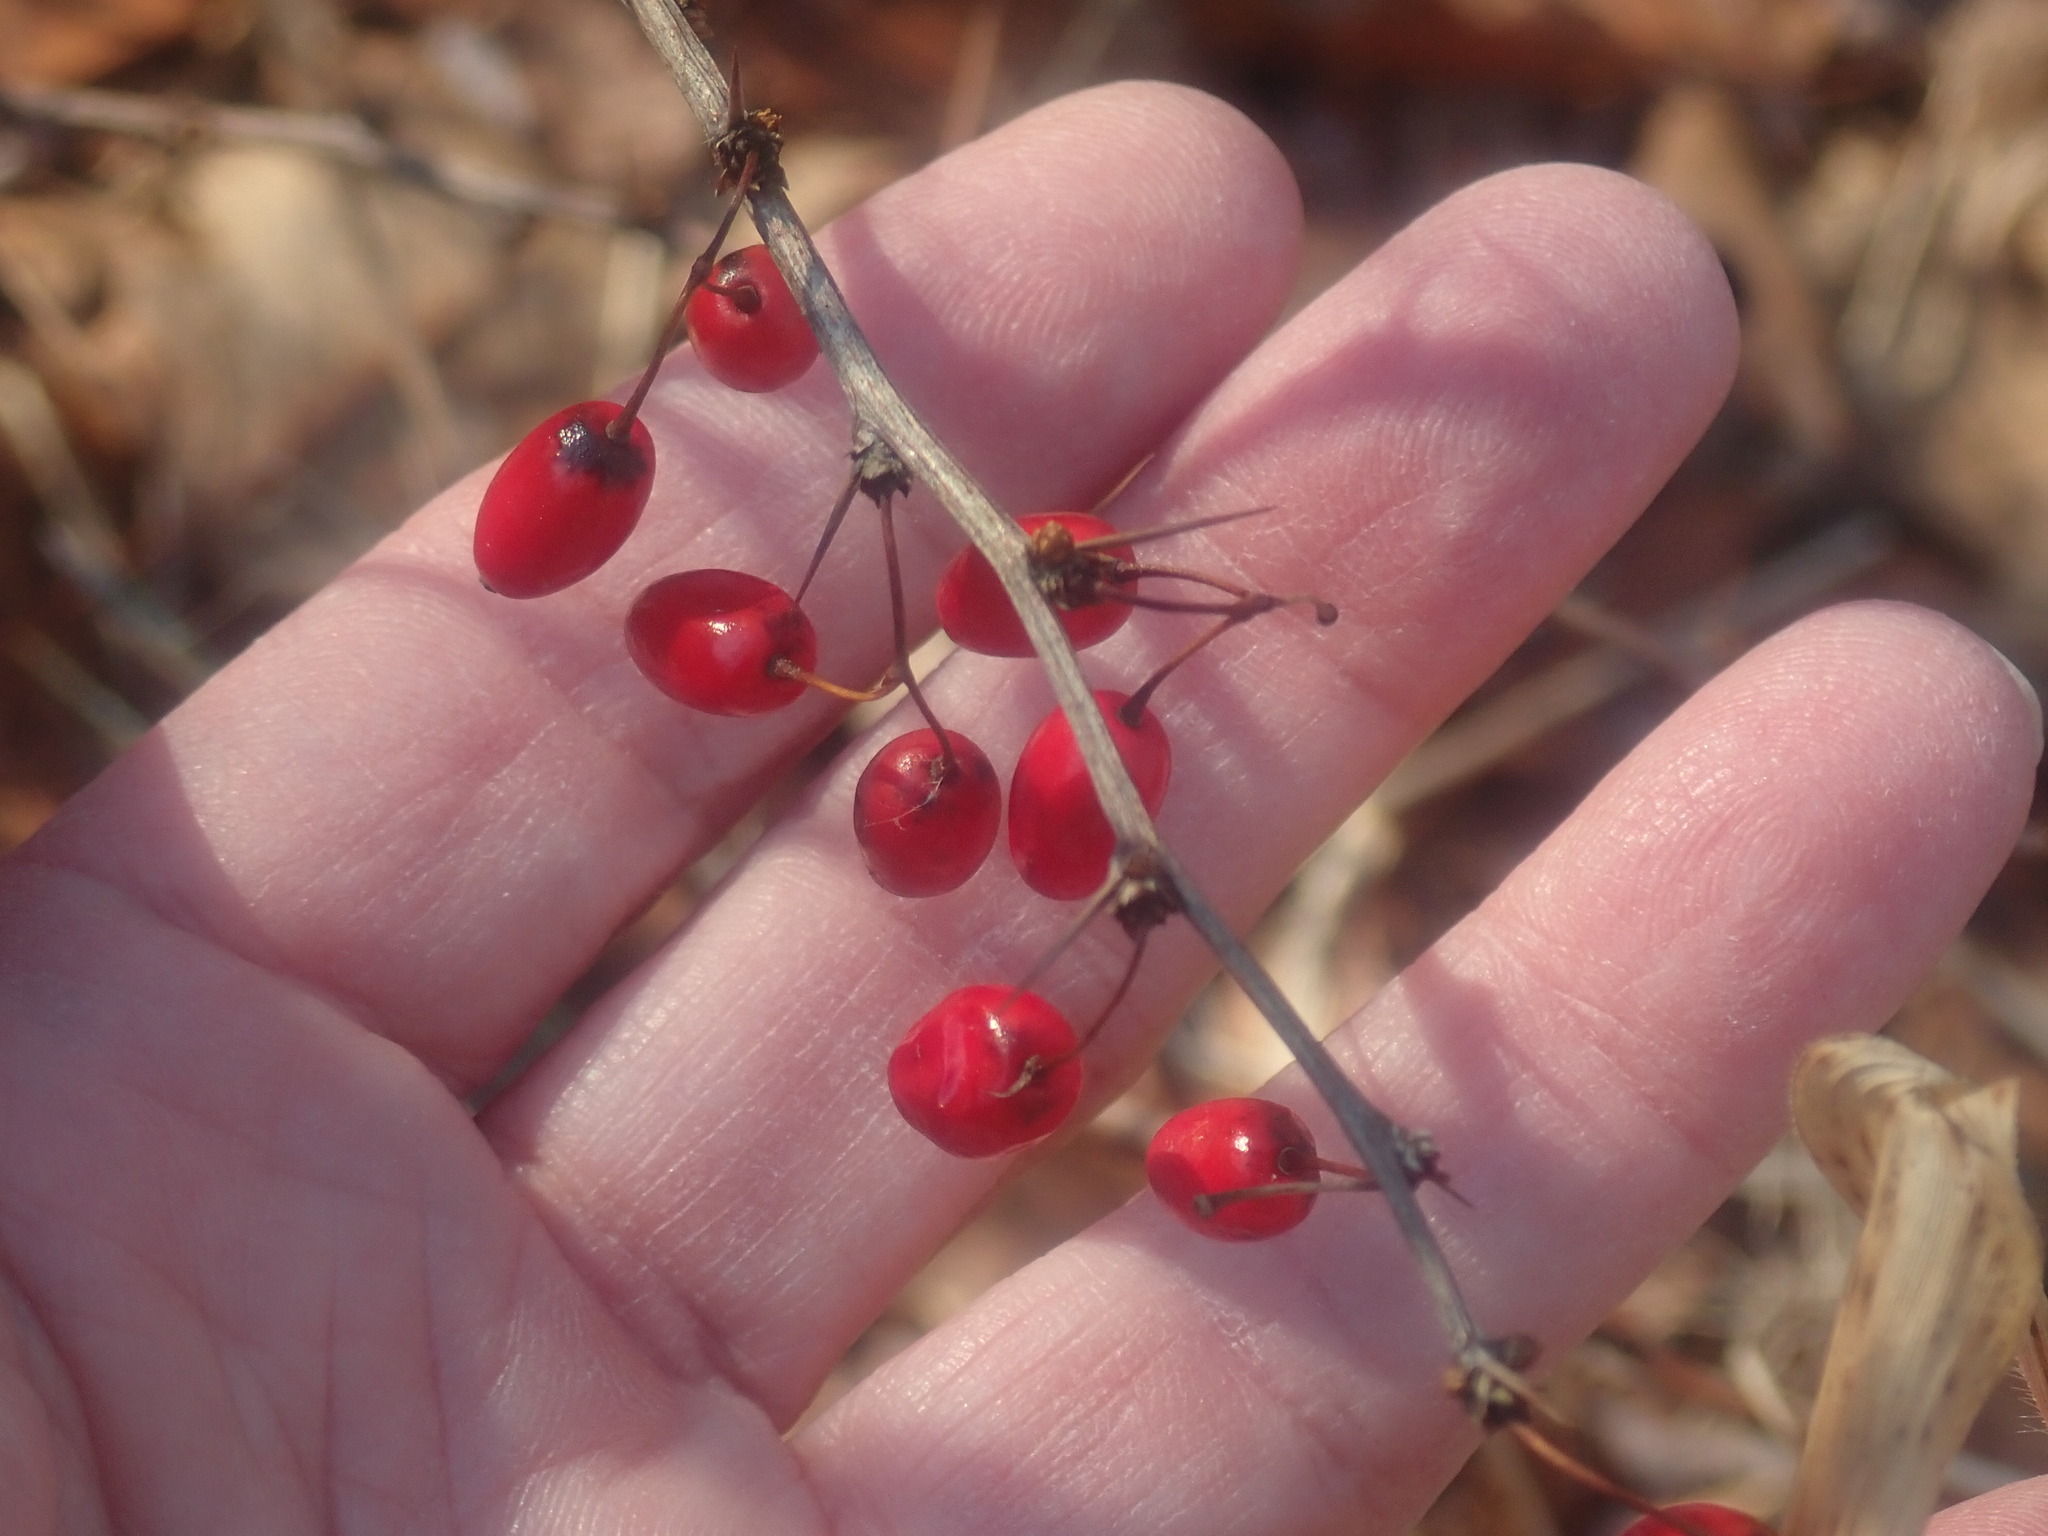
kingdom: Plantae
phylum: Tracheophyta
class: Magnoliopsida
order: Ranunculales
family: Berberidaceae
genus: Berberis
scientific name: Berberis thunbergii
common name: Japanese barberry
